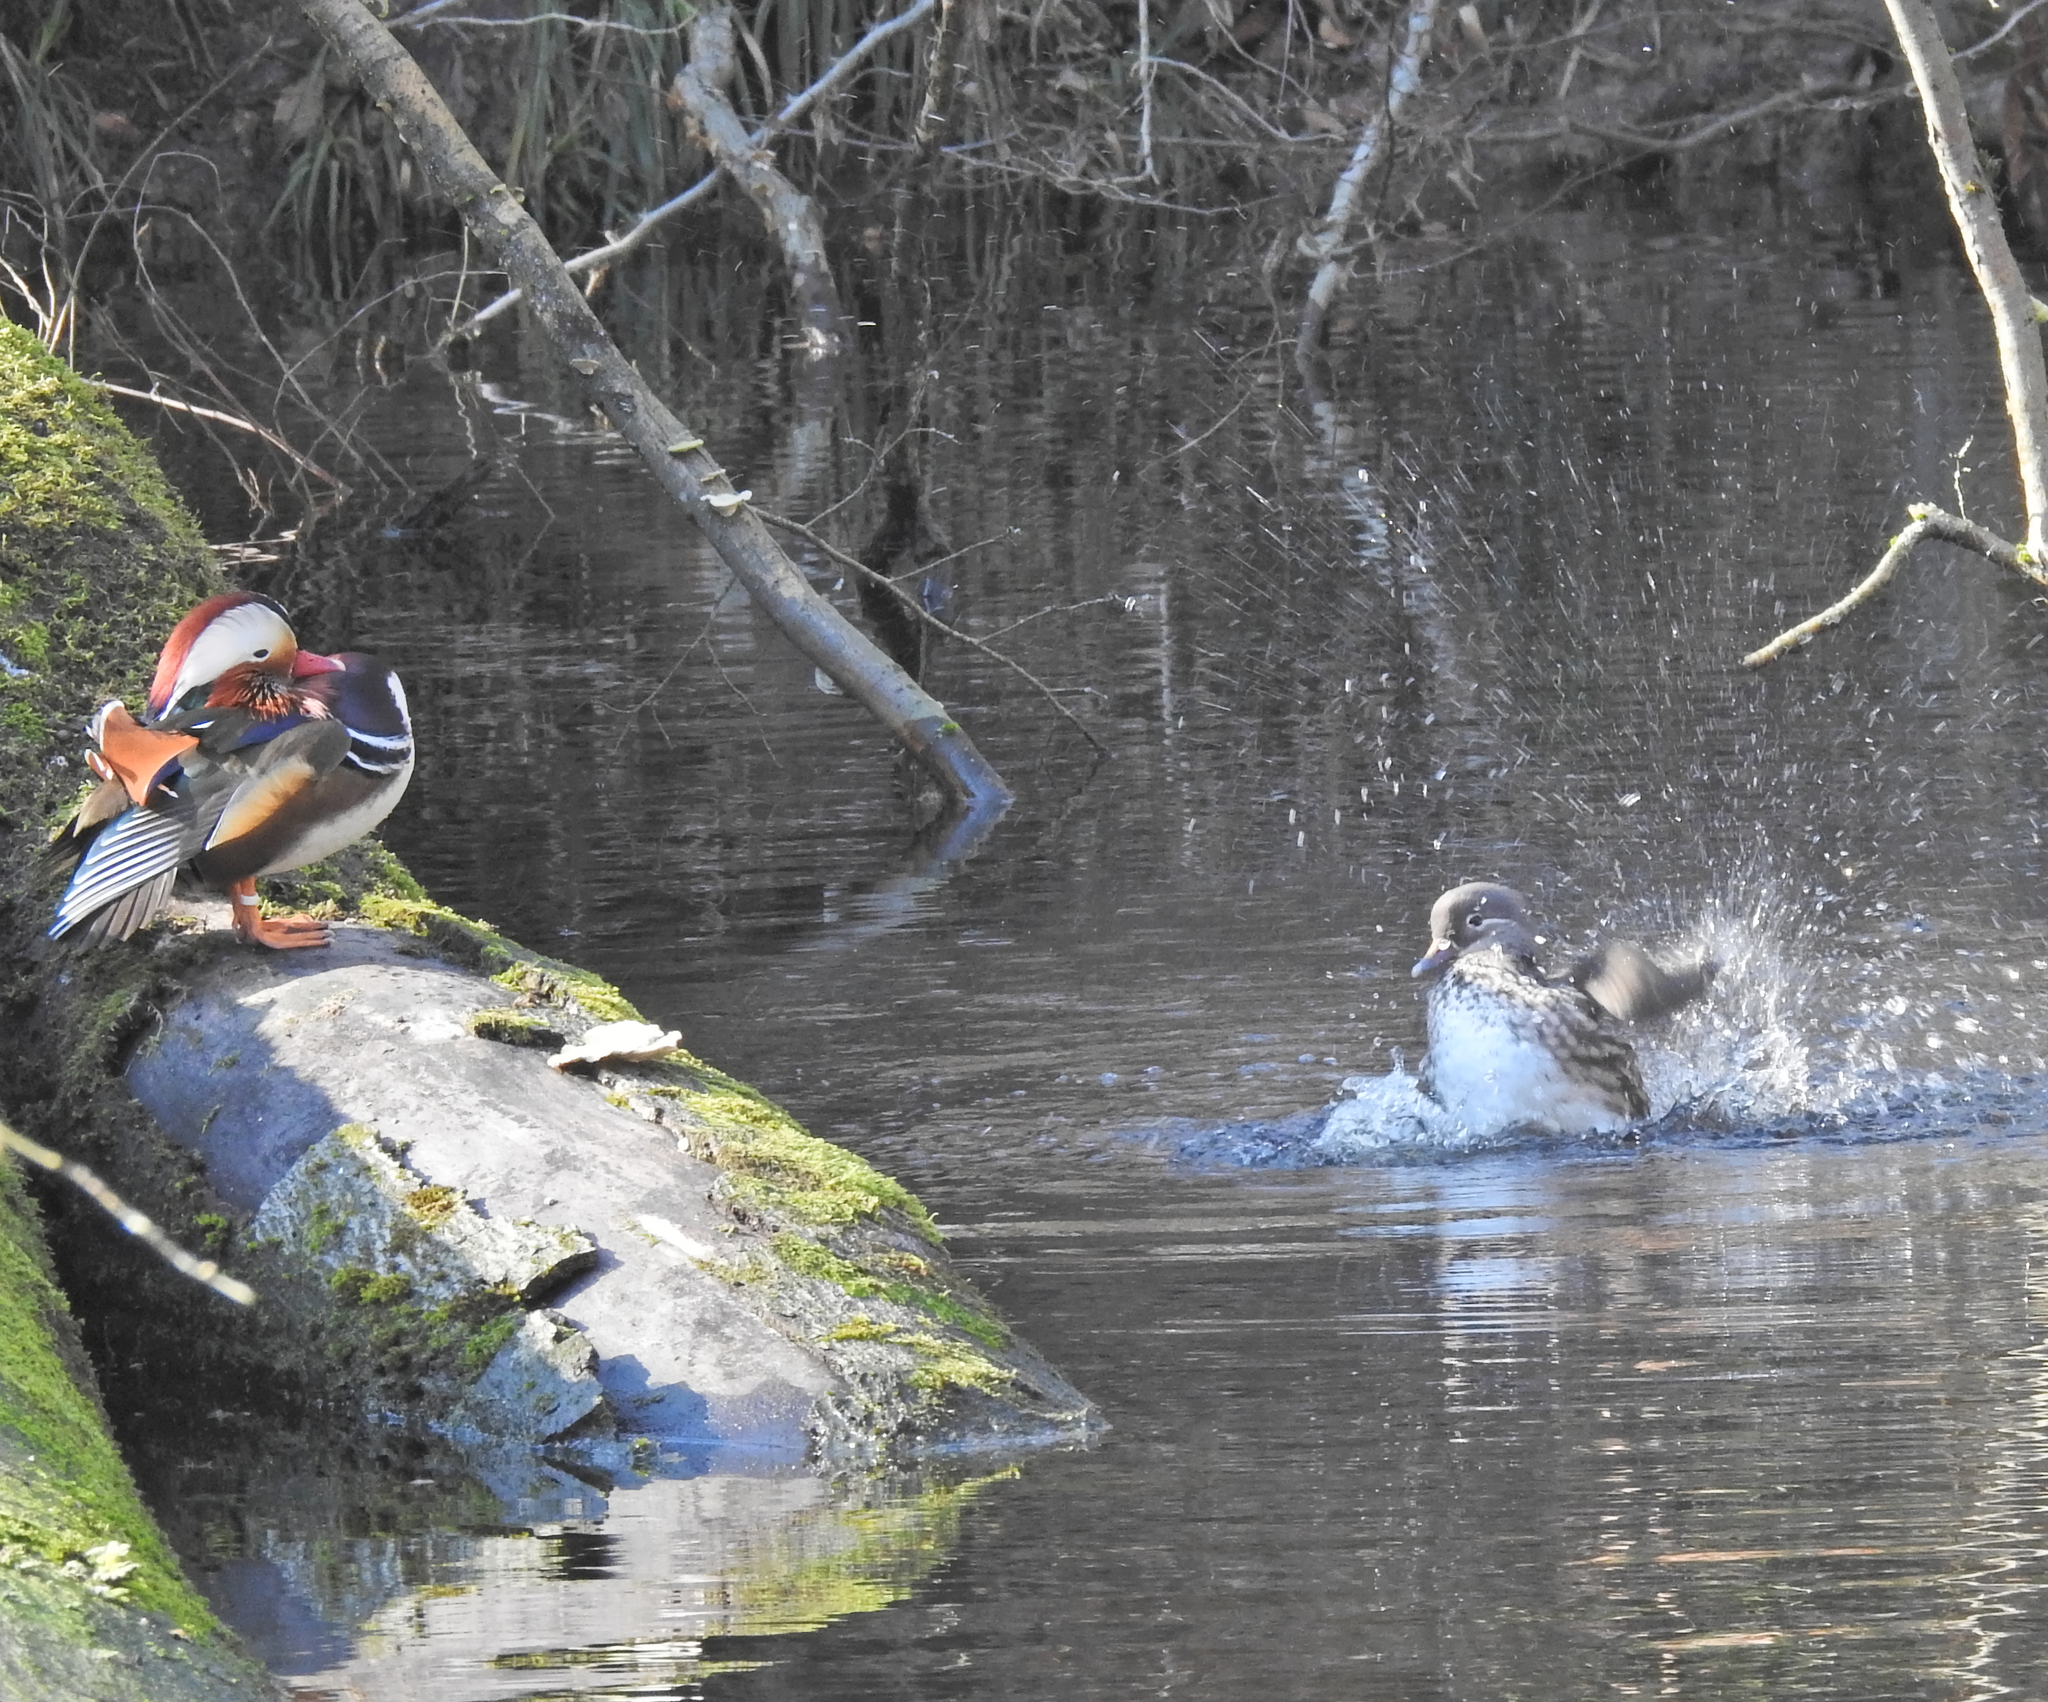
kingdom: Animalia
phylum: Chordata
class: Aves
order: Anseriformes
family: Anatidae
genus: Aix
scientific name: Aix galericulata
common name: Mandarin duck
